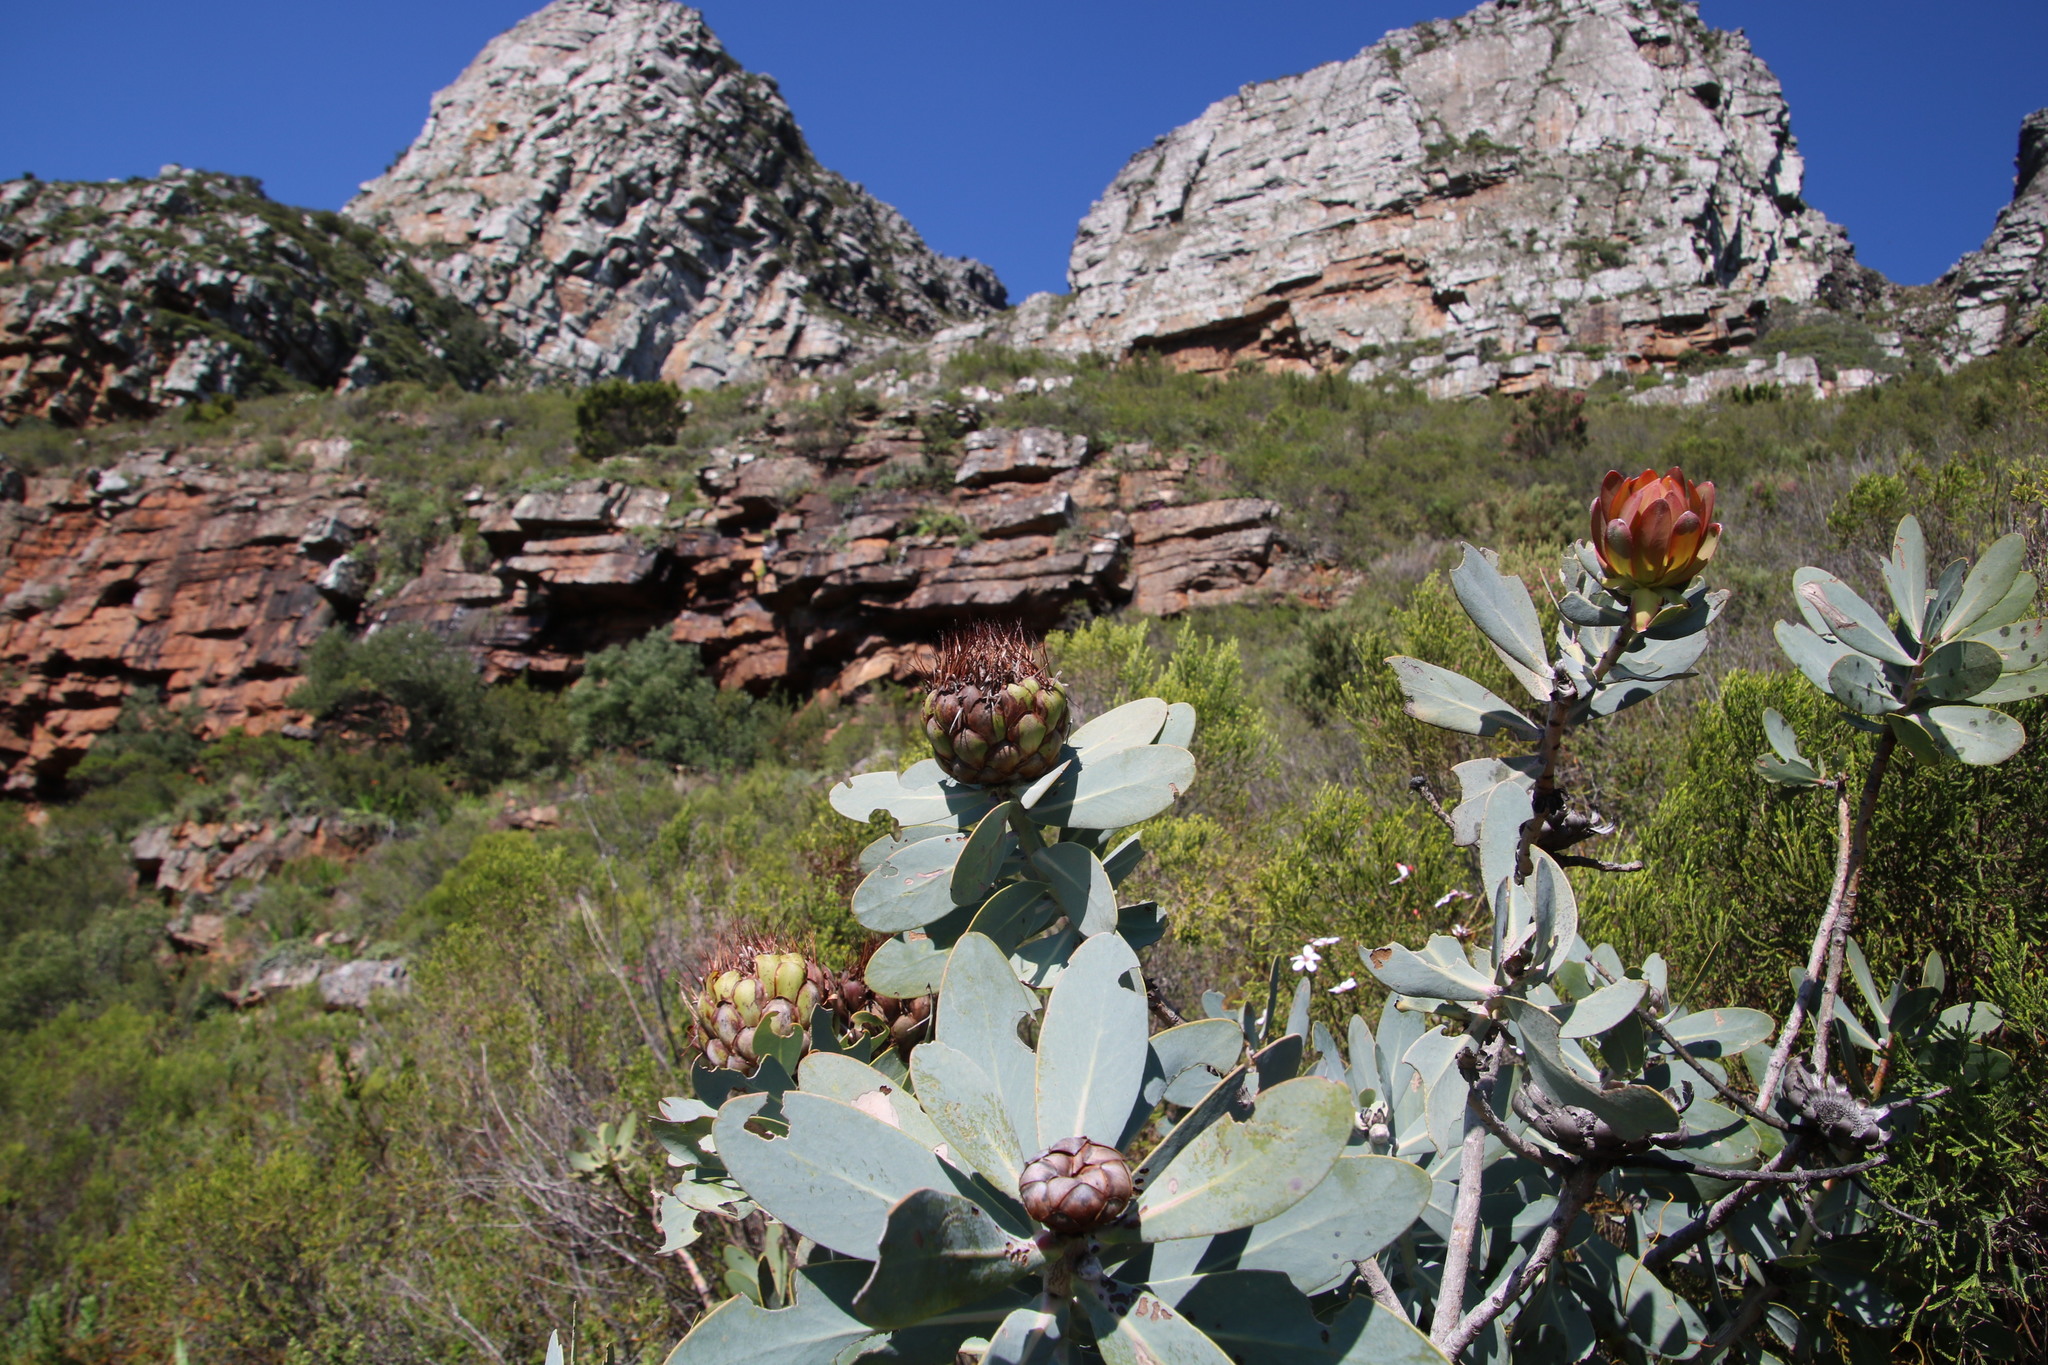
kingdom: Plantae
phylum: Tracheophyta
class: Magnoliopsida
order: Proteales
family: Proteaceae
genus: Protea
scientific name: Protea nitida
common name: Tree protea
